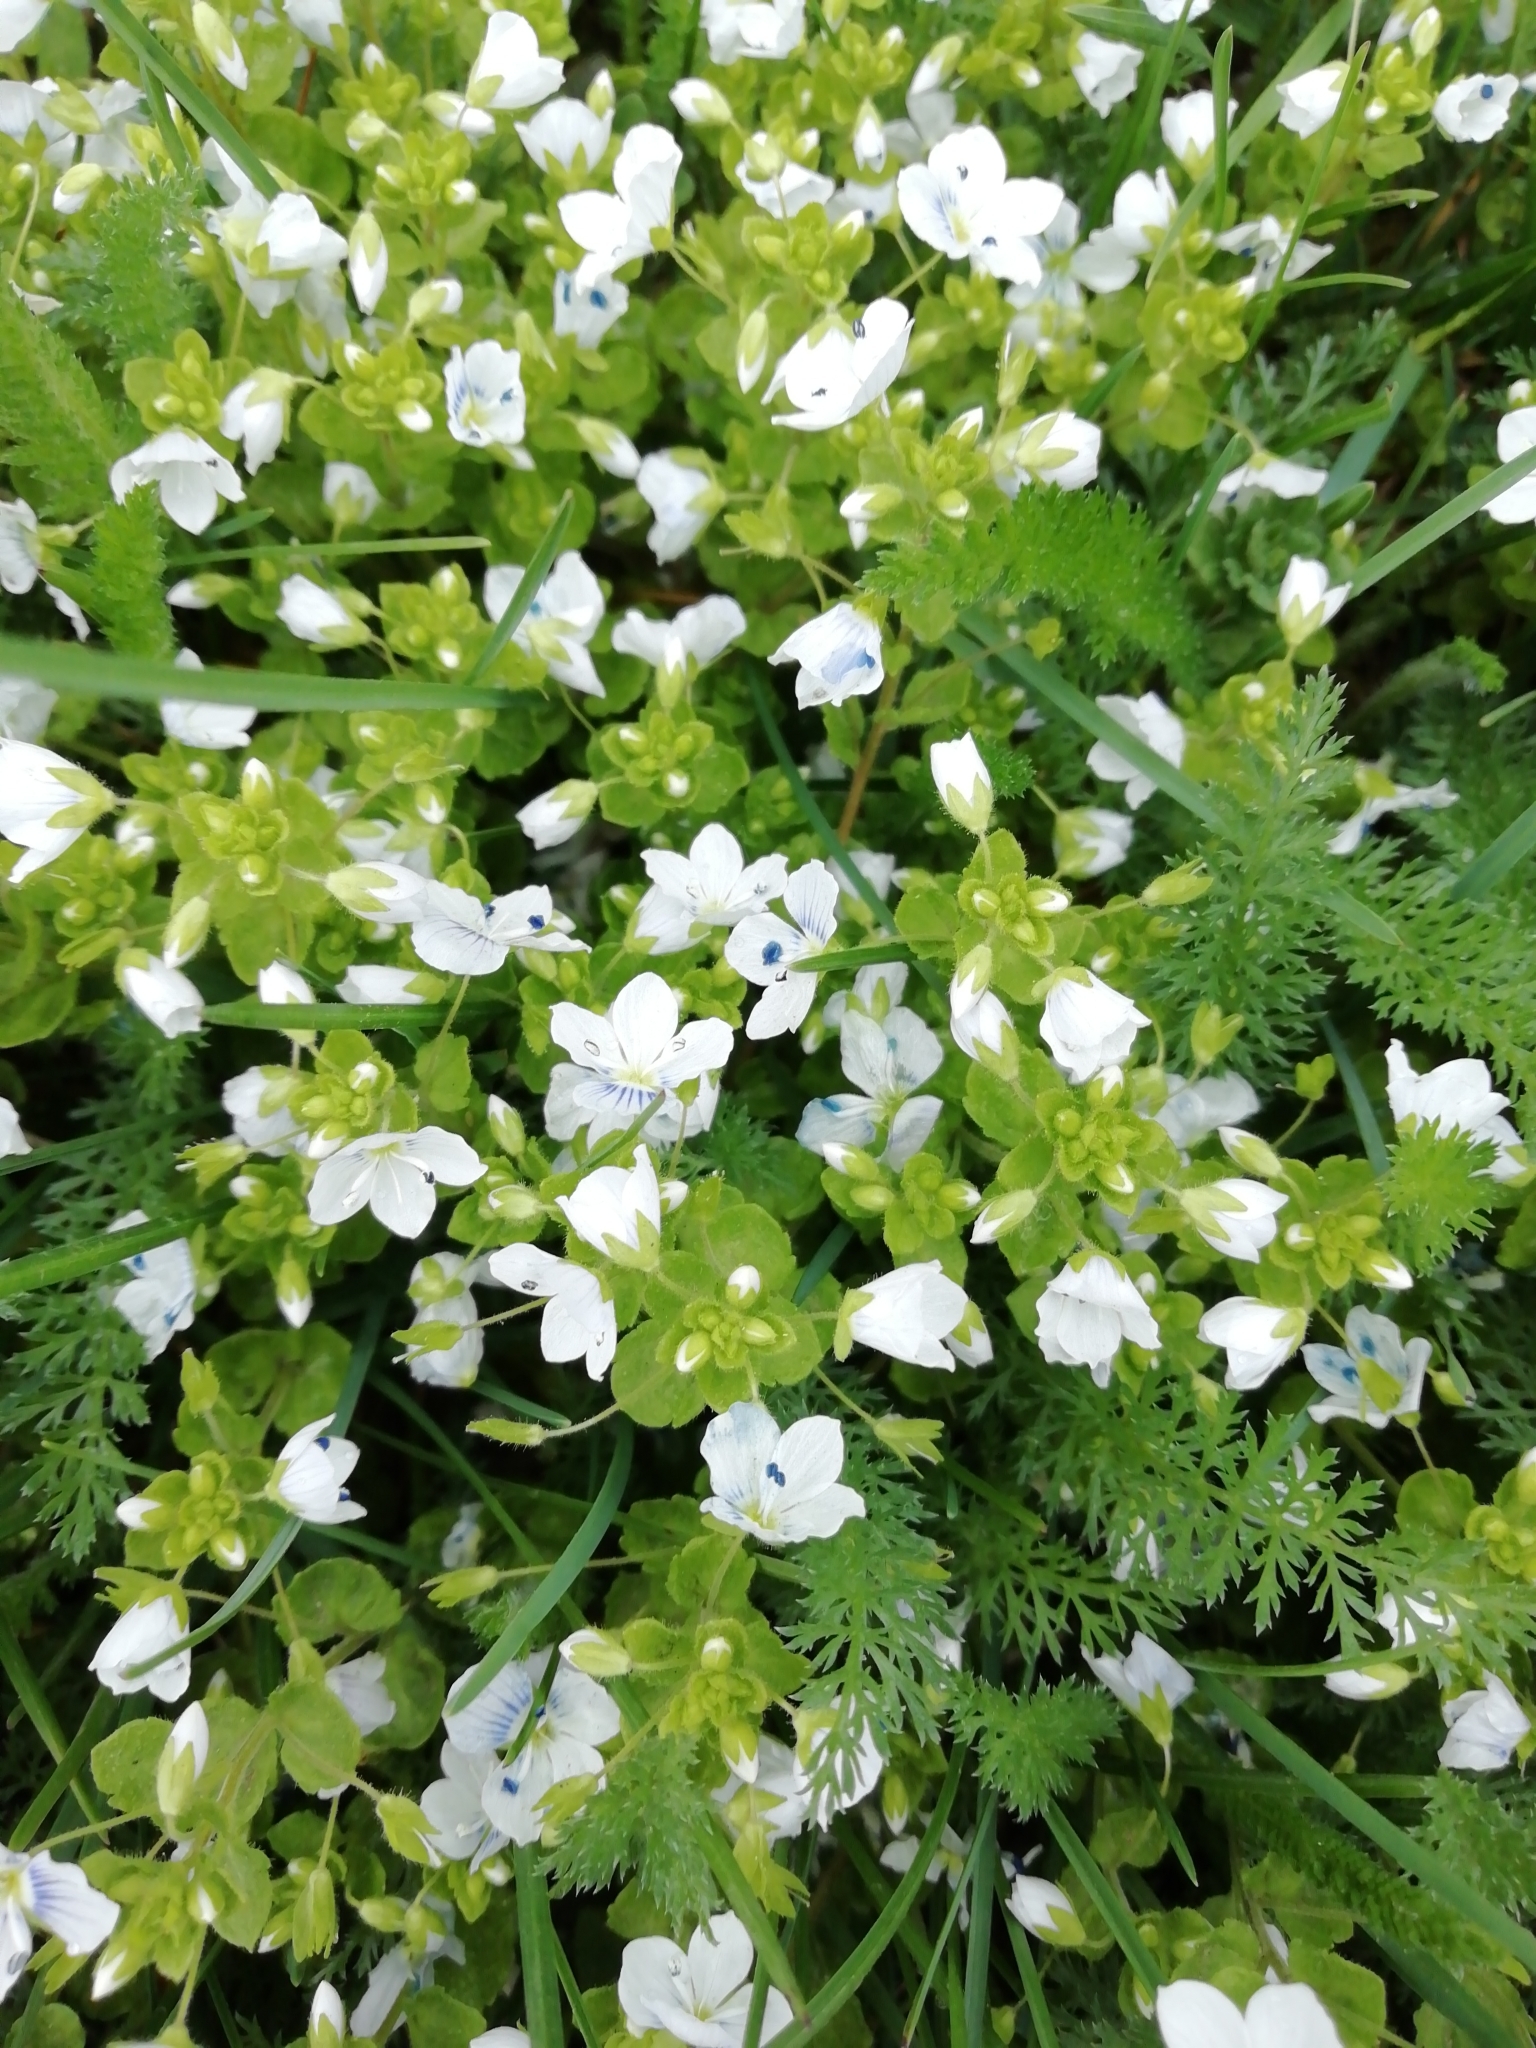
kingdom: Plantae
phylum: Tracheophyta
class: Magnoliopsida
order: Lamiales
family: Plantaginaceae
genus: Veronica
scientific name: Veronica filiformis
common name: Slender speedwell
